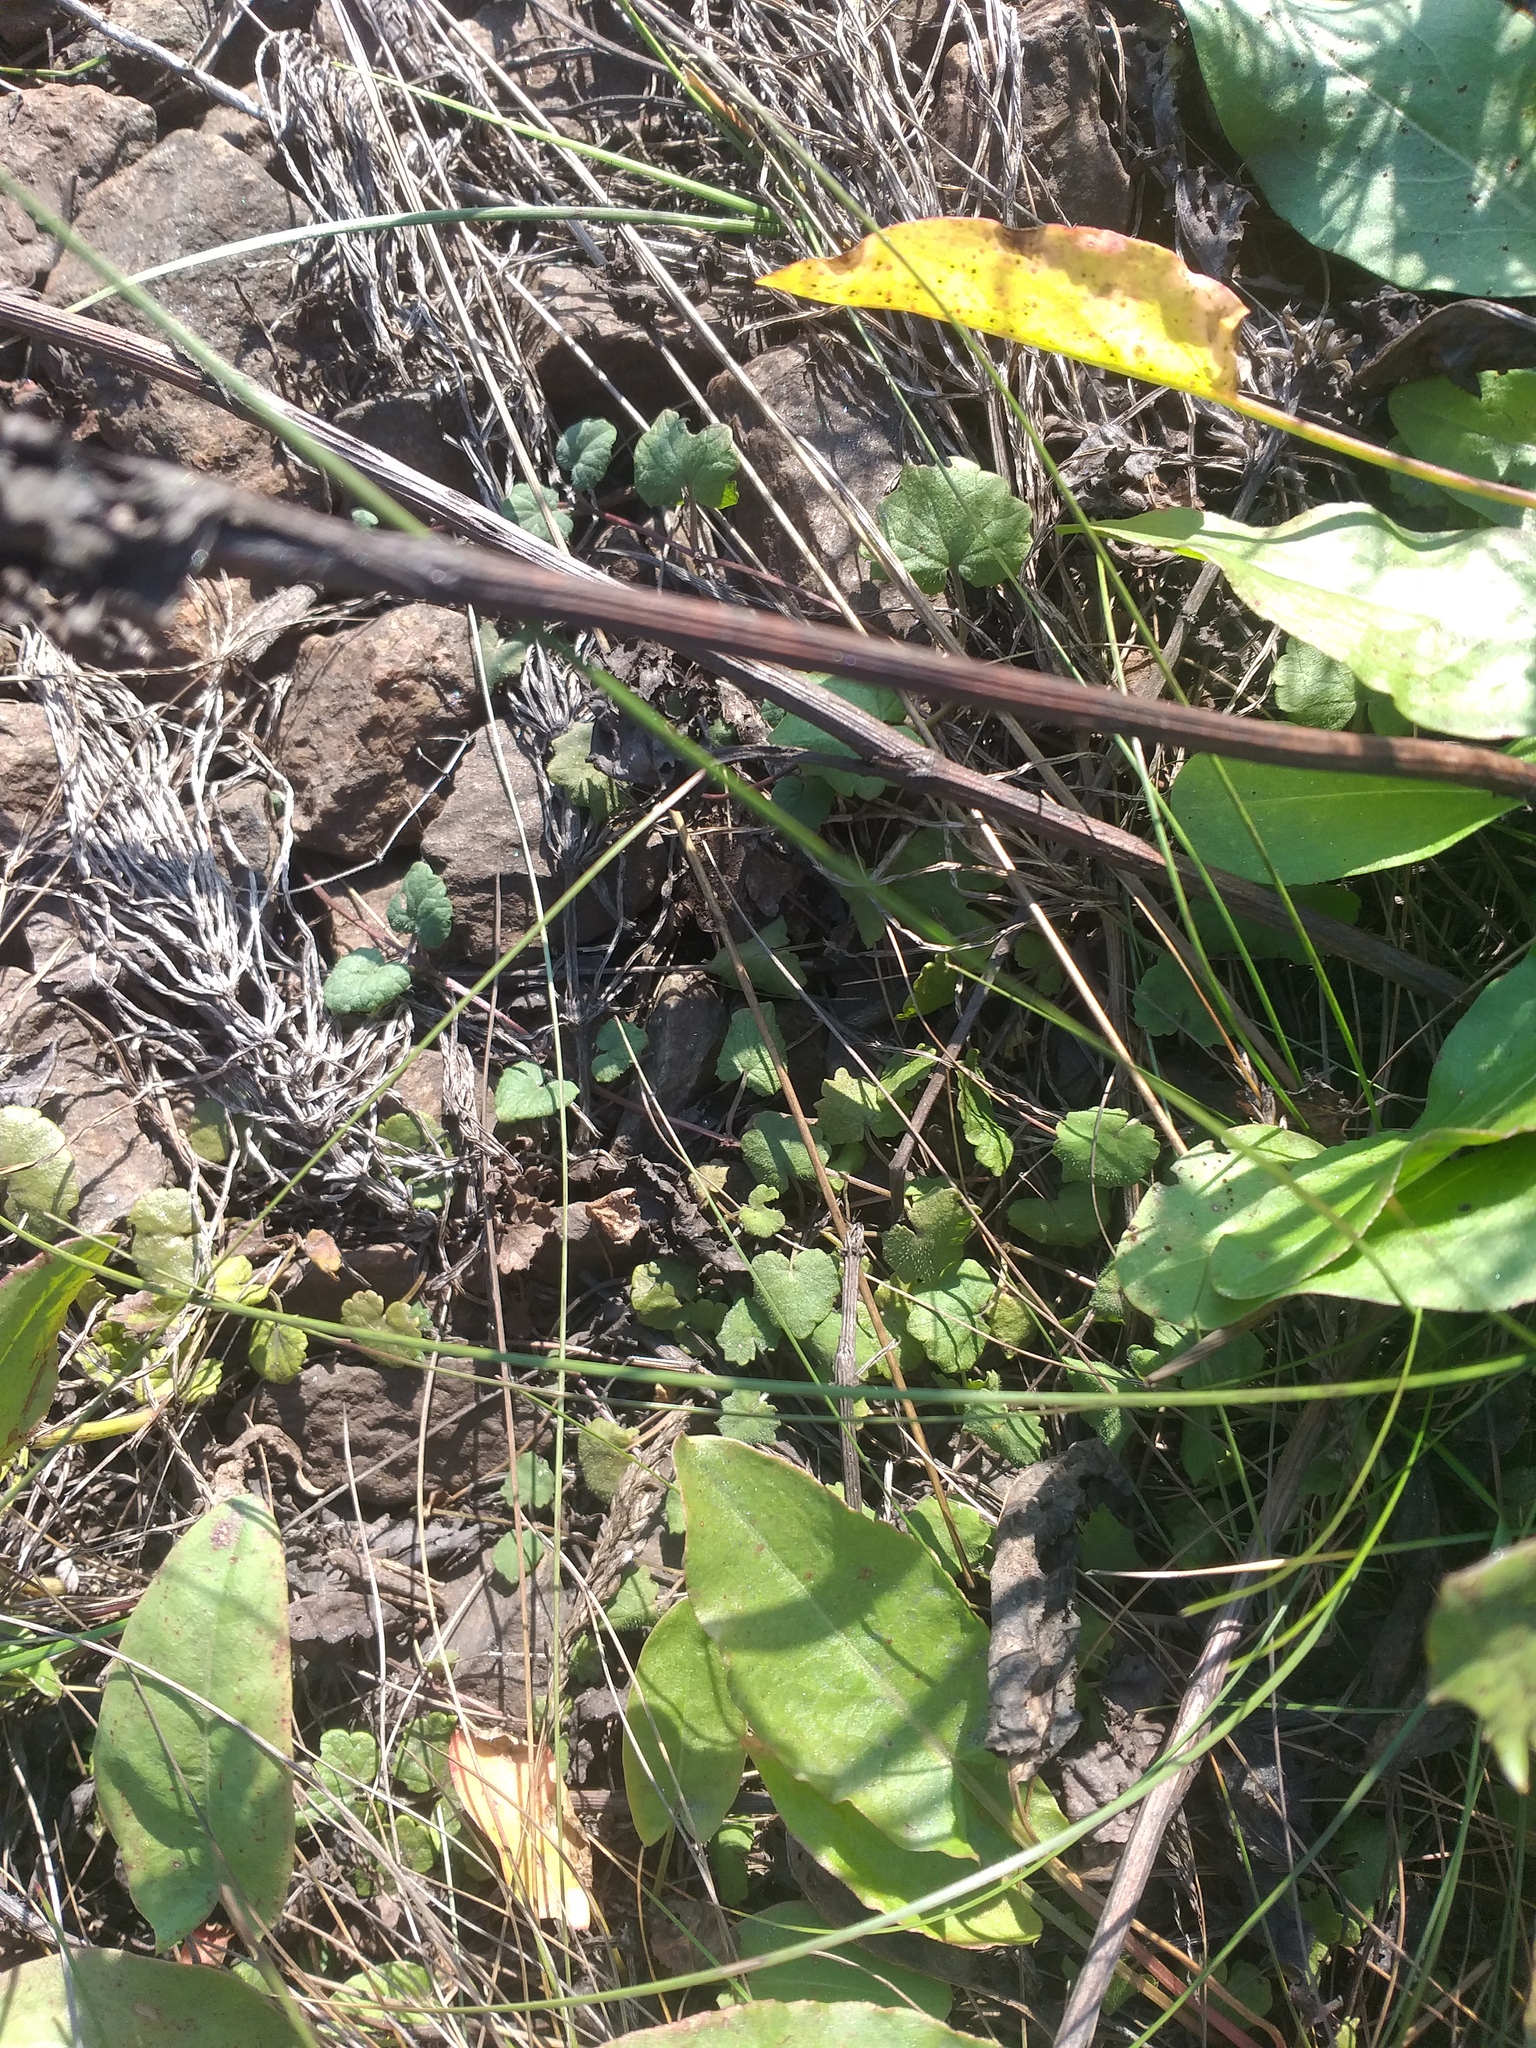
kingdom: Plantae
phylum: Tracheophyta
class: Magnoliopsida
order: Lamiales
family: Lamiaceae
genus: Glechoma
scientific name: Glechoma hederacea
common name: Ground ivy
